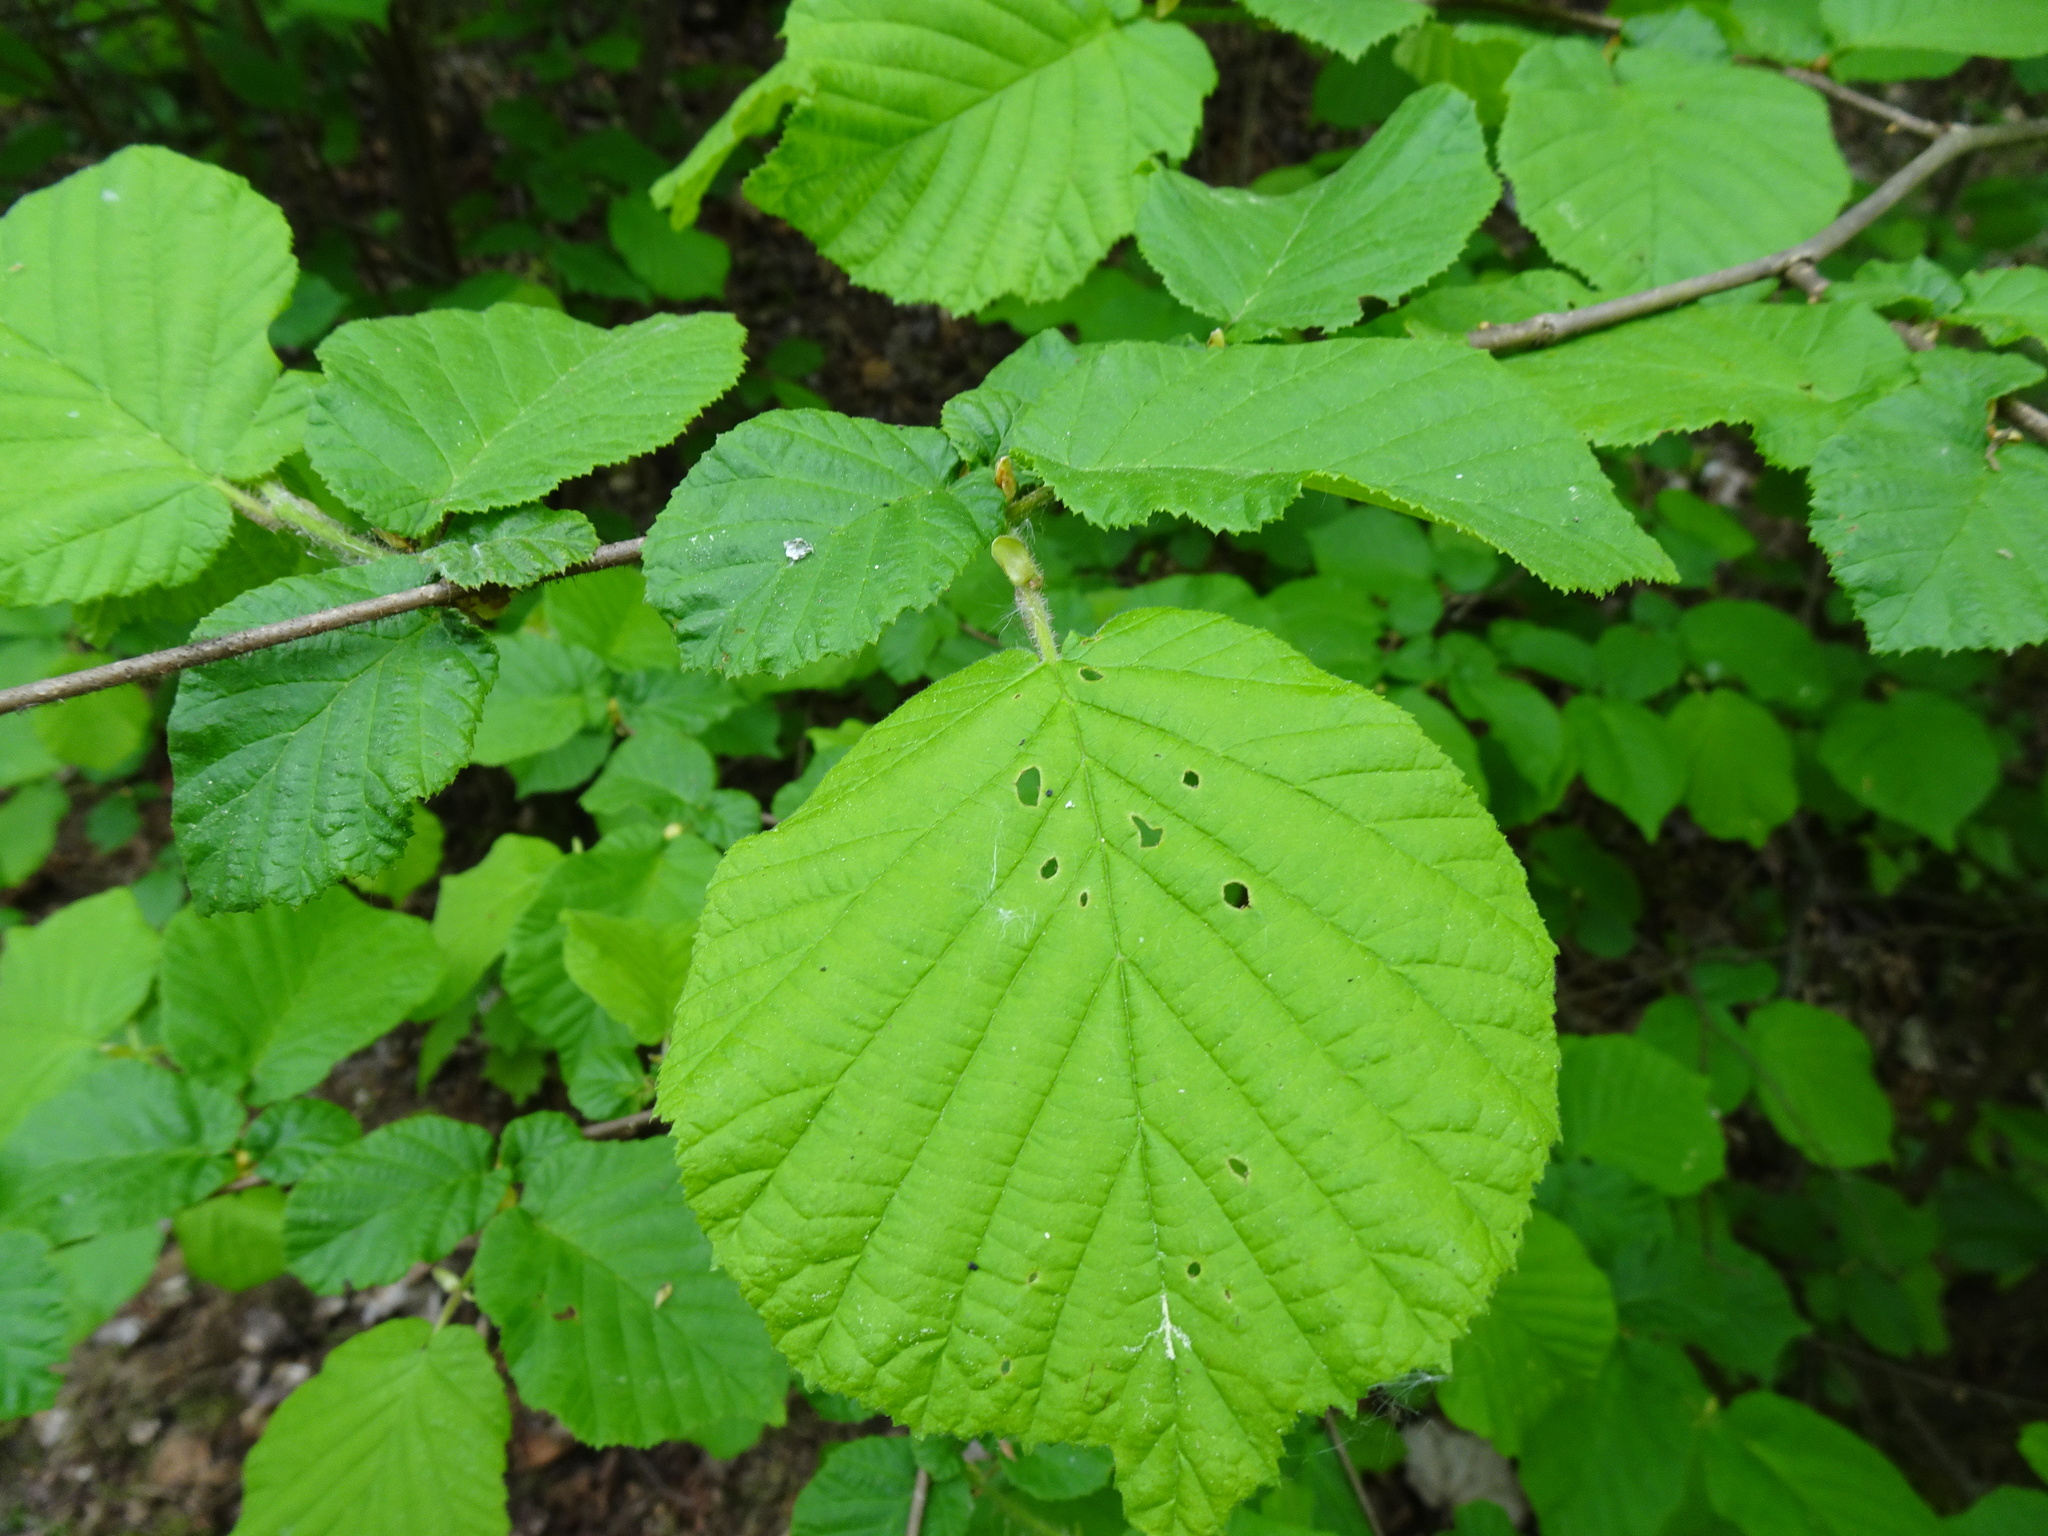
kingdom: Plantae
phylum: Tracheophyta
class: Magnoliopsida
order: Fagales
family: Betulaceae
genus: Corylus
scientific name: Corylus avellana
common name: European hazel
